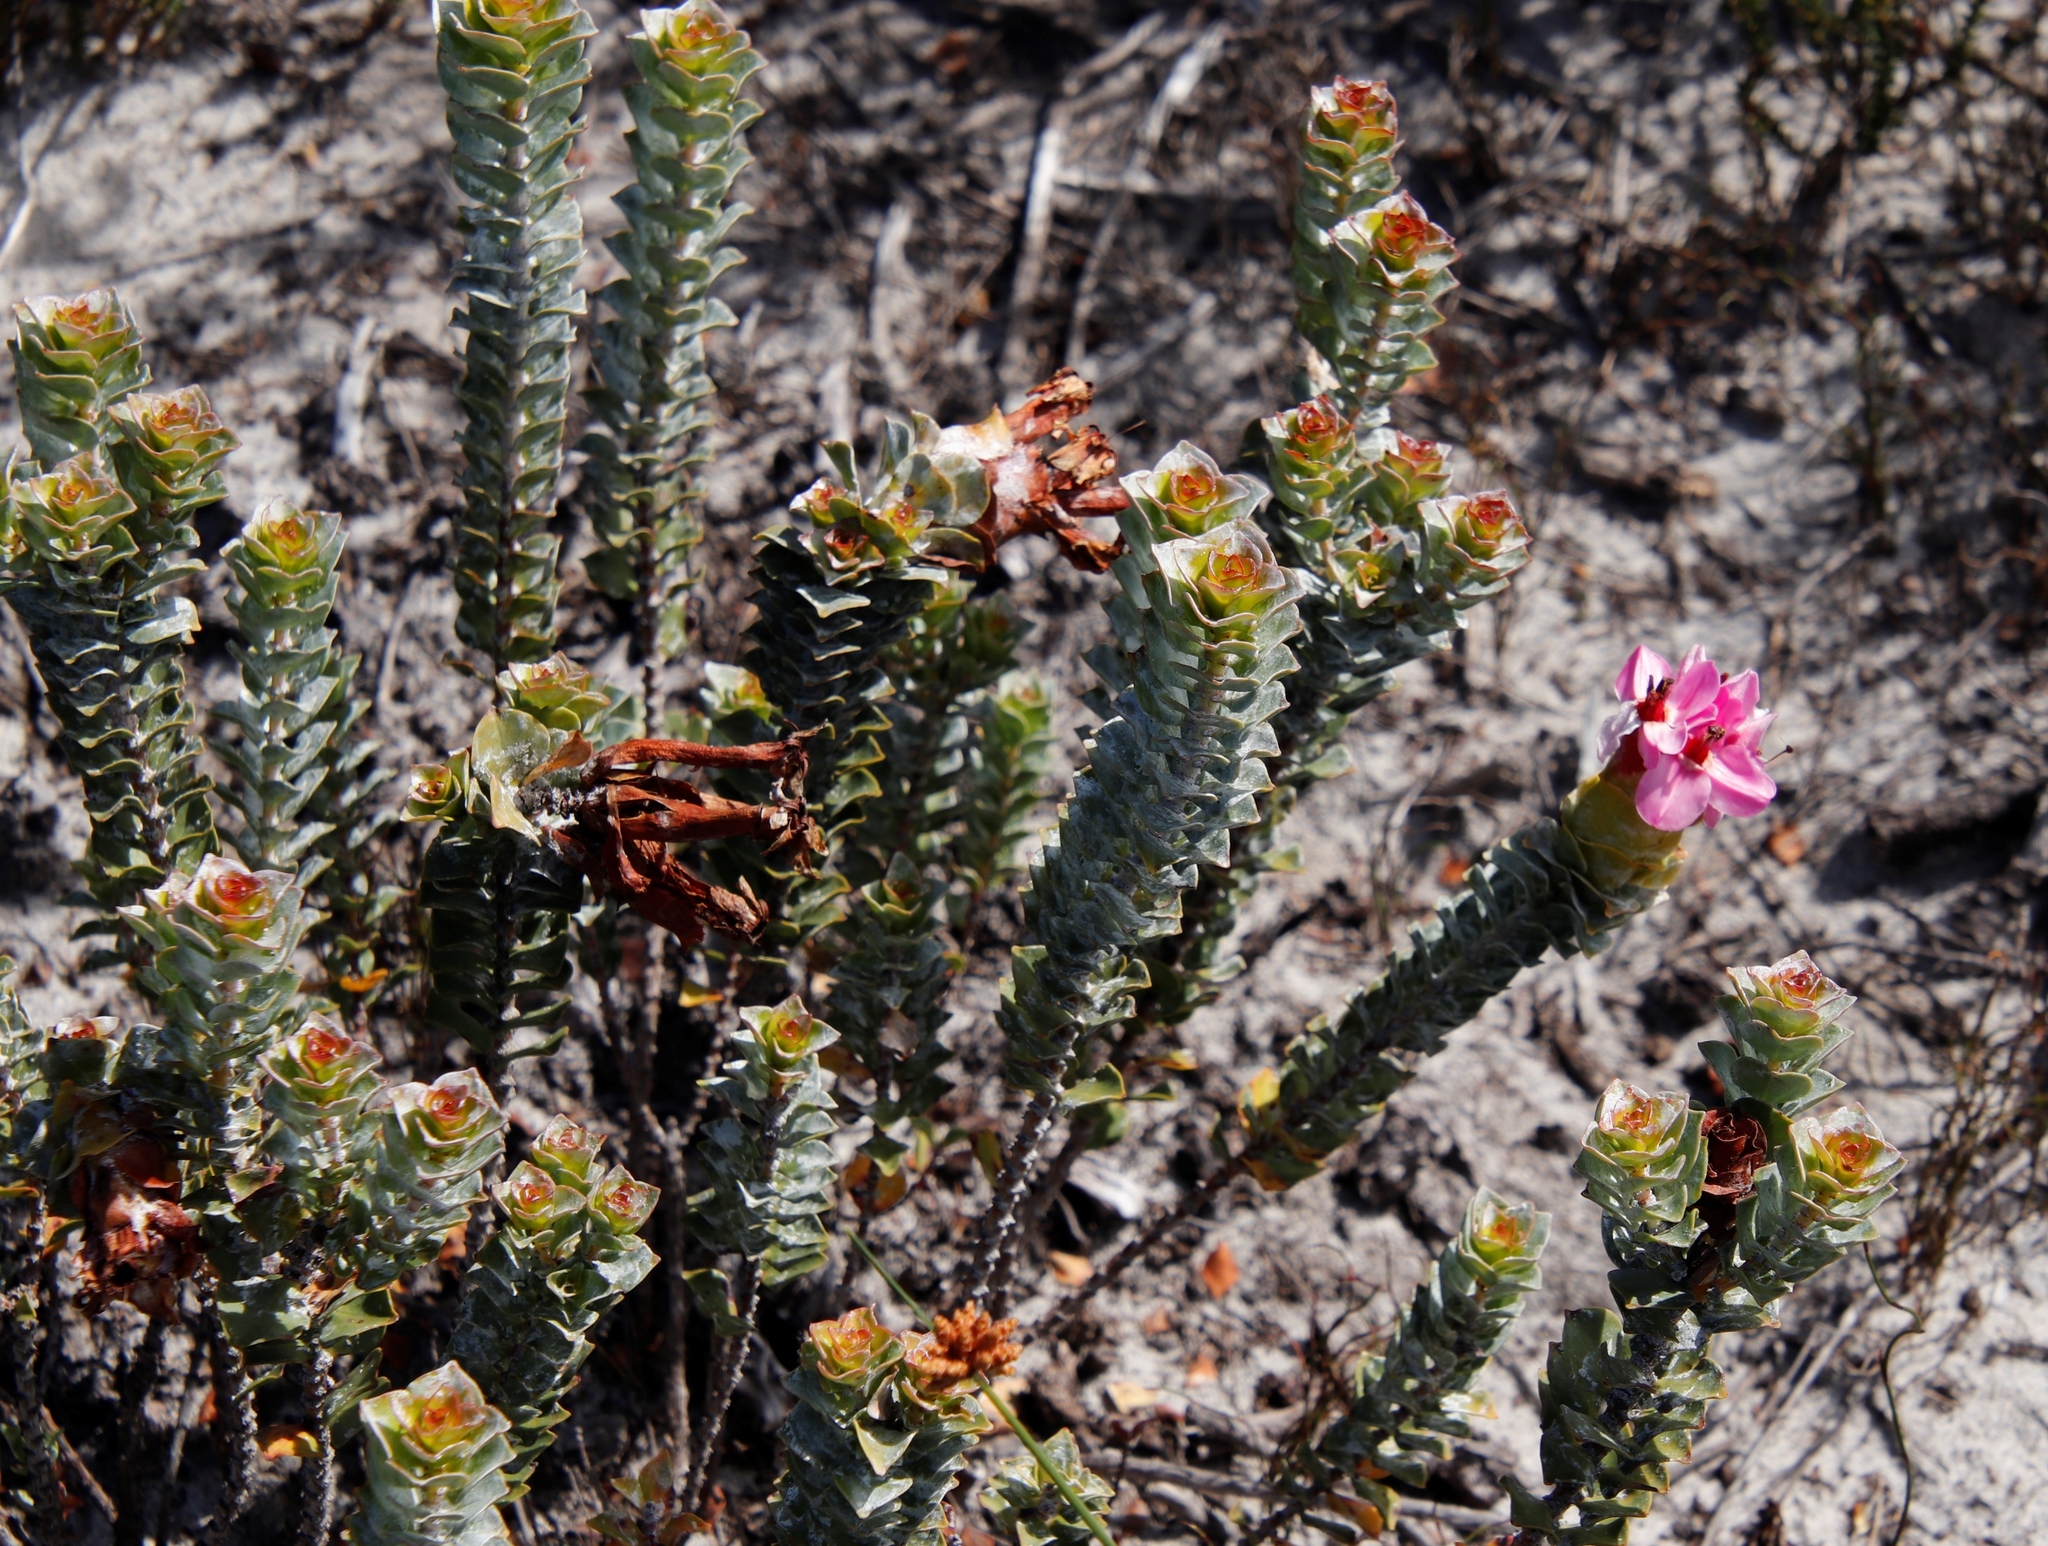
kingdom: Plantae
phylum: Tracheophyta
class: Magnoliopsida
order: Myrtales
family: Penaeaceae
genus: Saltera
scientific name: Saltera sarcocolla
